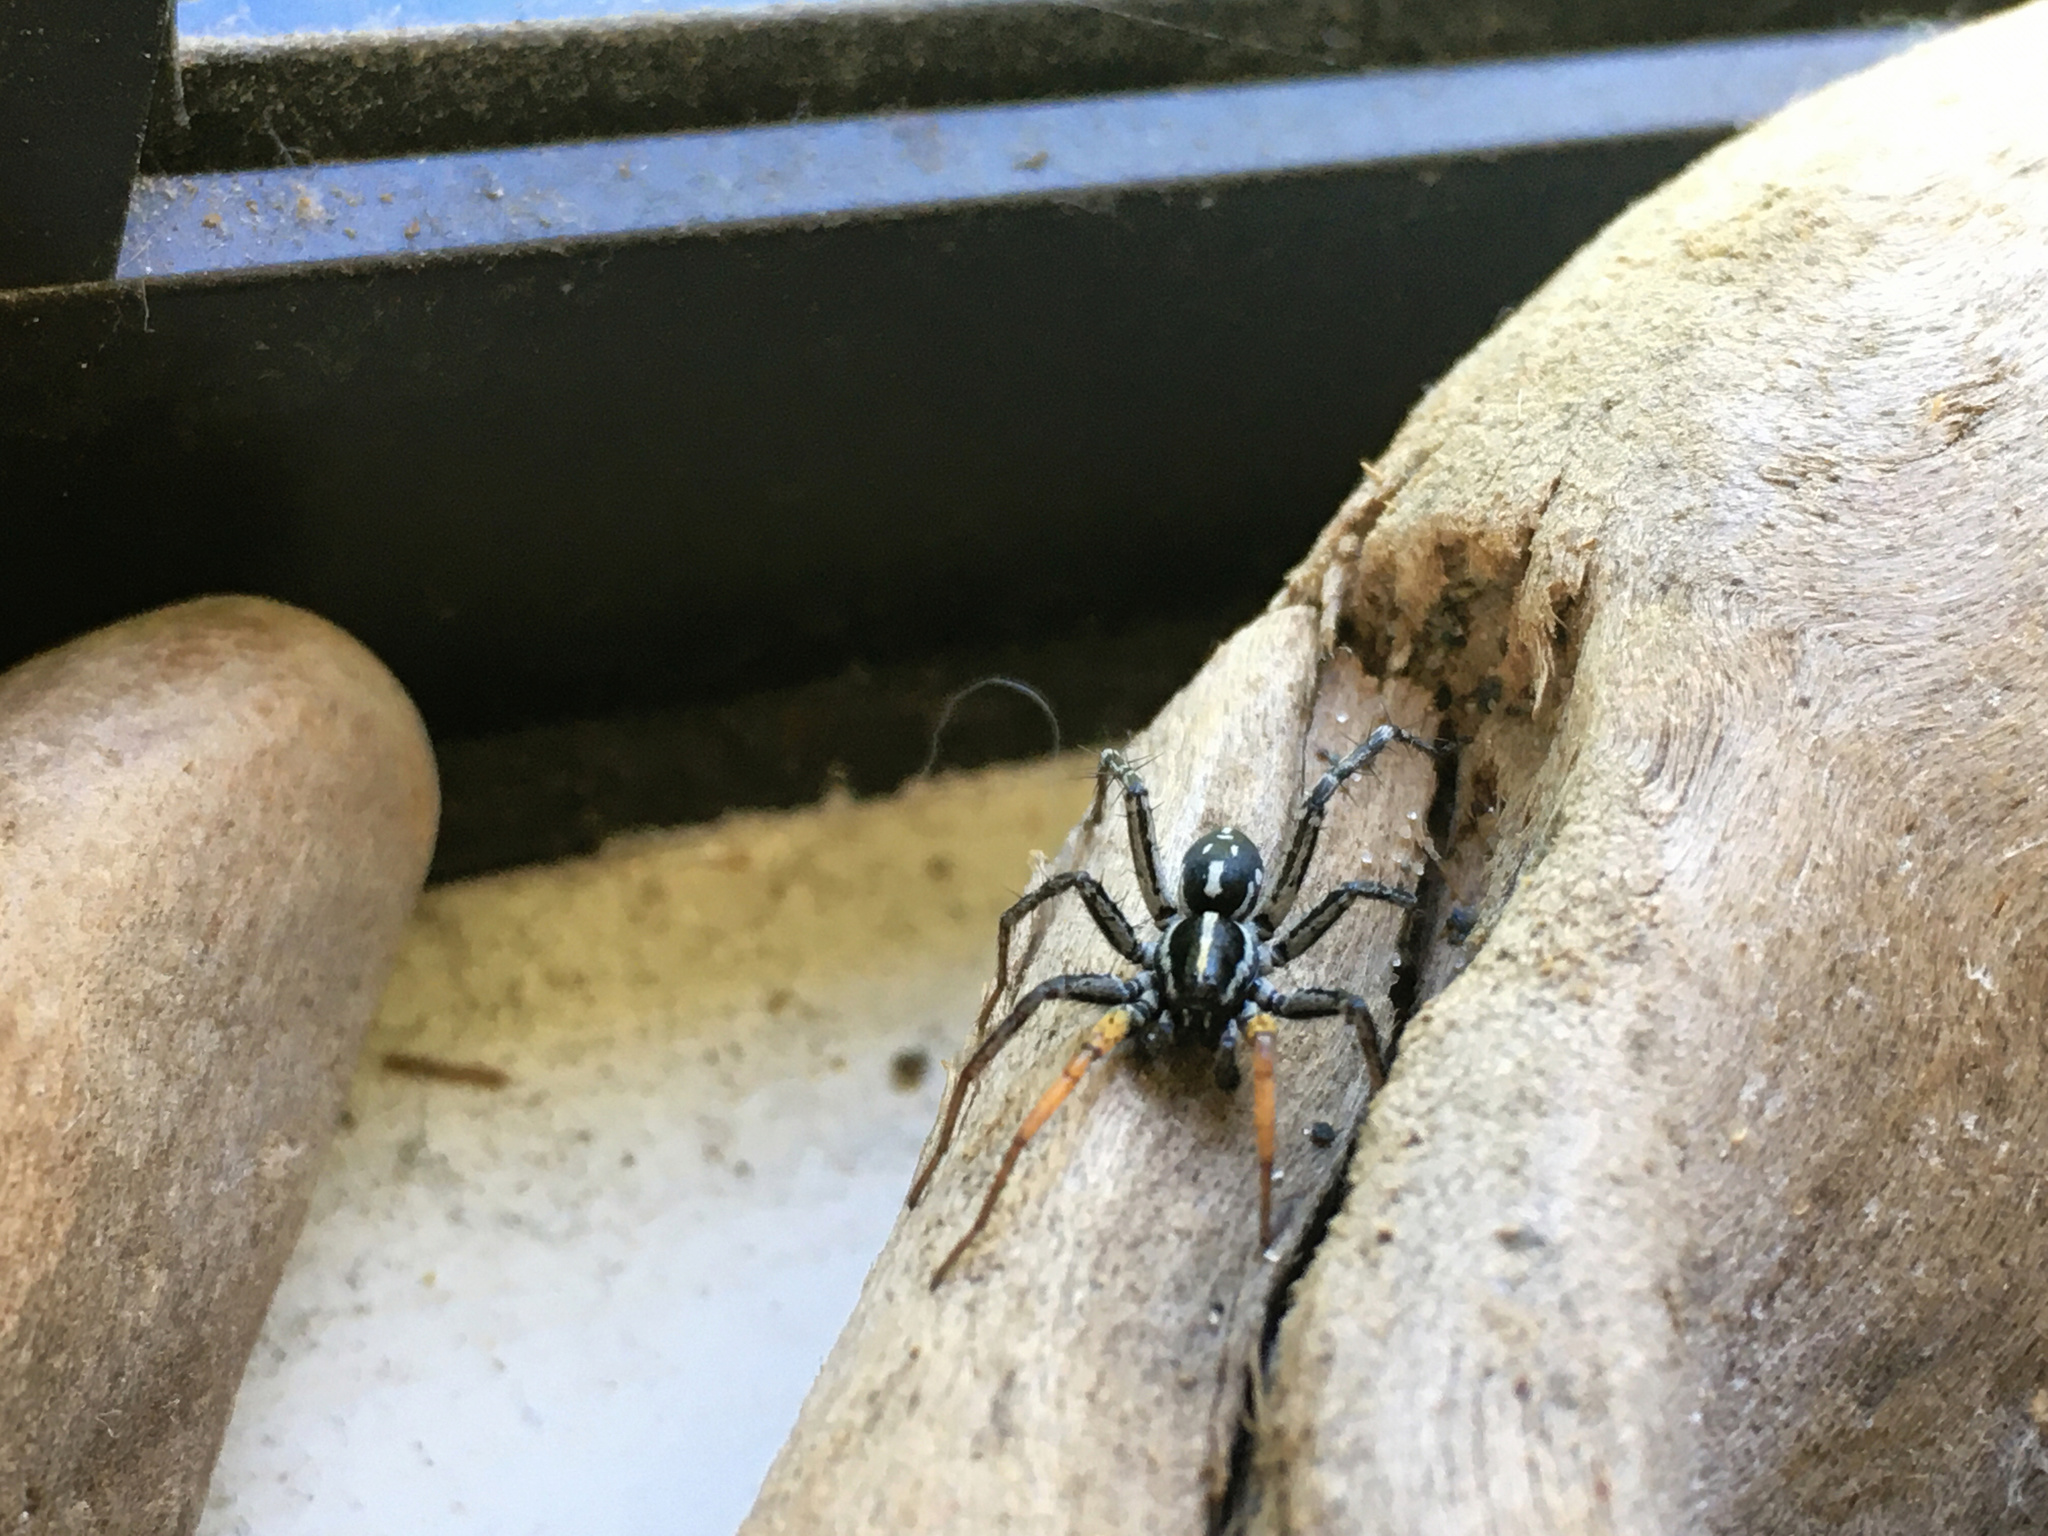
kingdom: Animalia
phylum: Arthropoda
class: Arachnida
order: Araneae
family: Corinnidae
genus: Nyssus
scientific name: Nyssus coloripes
